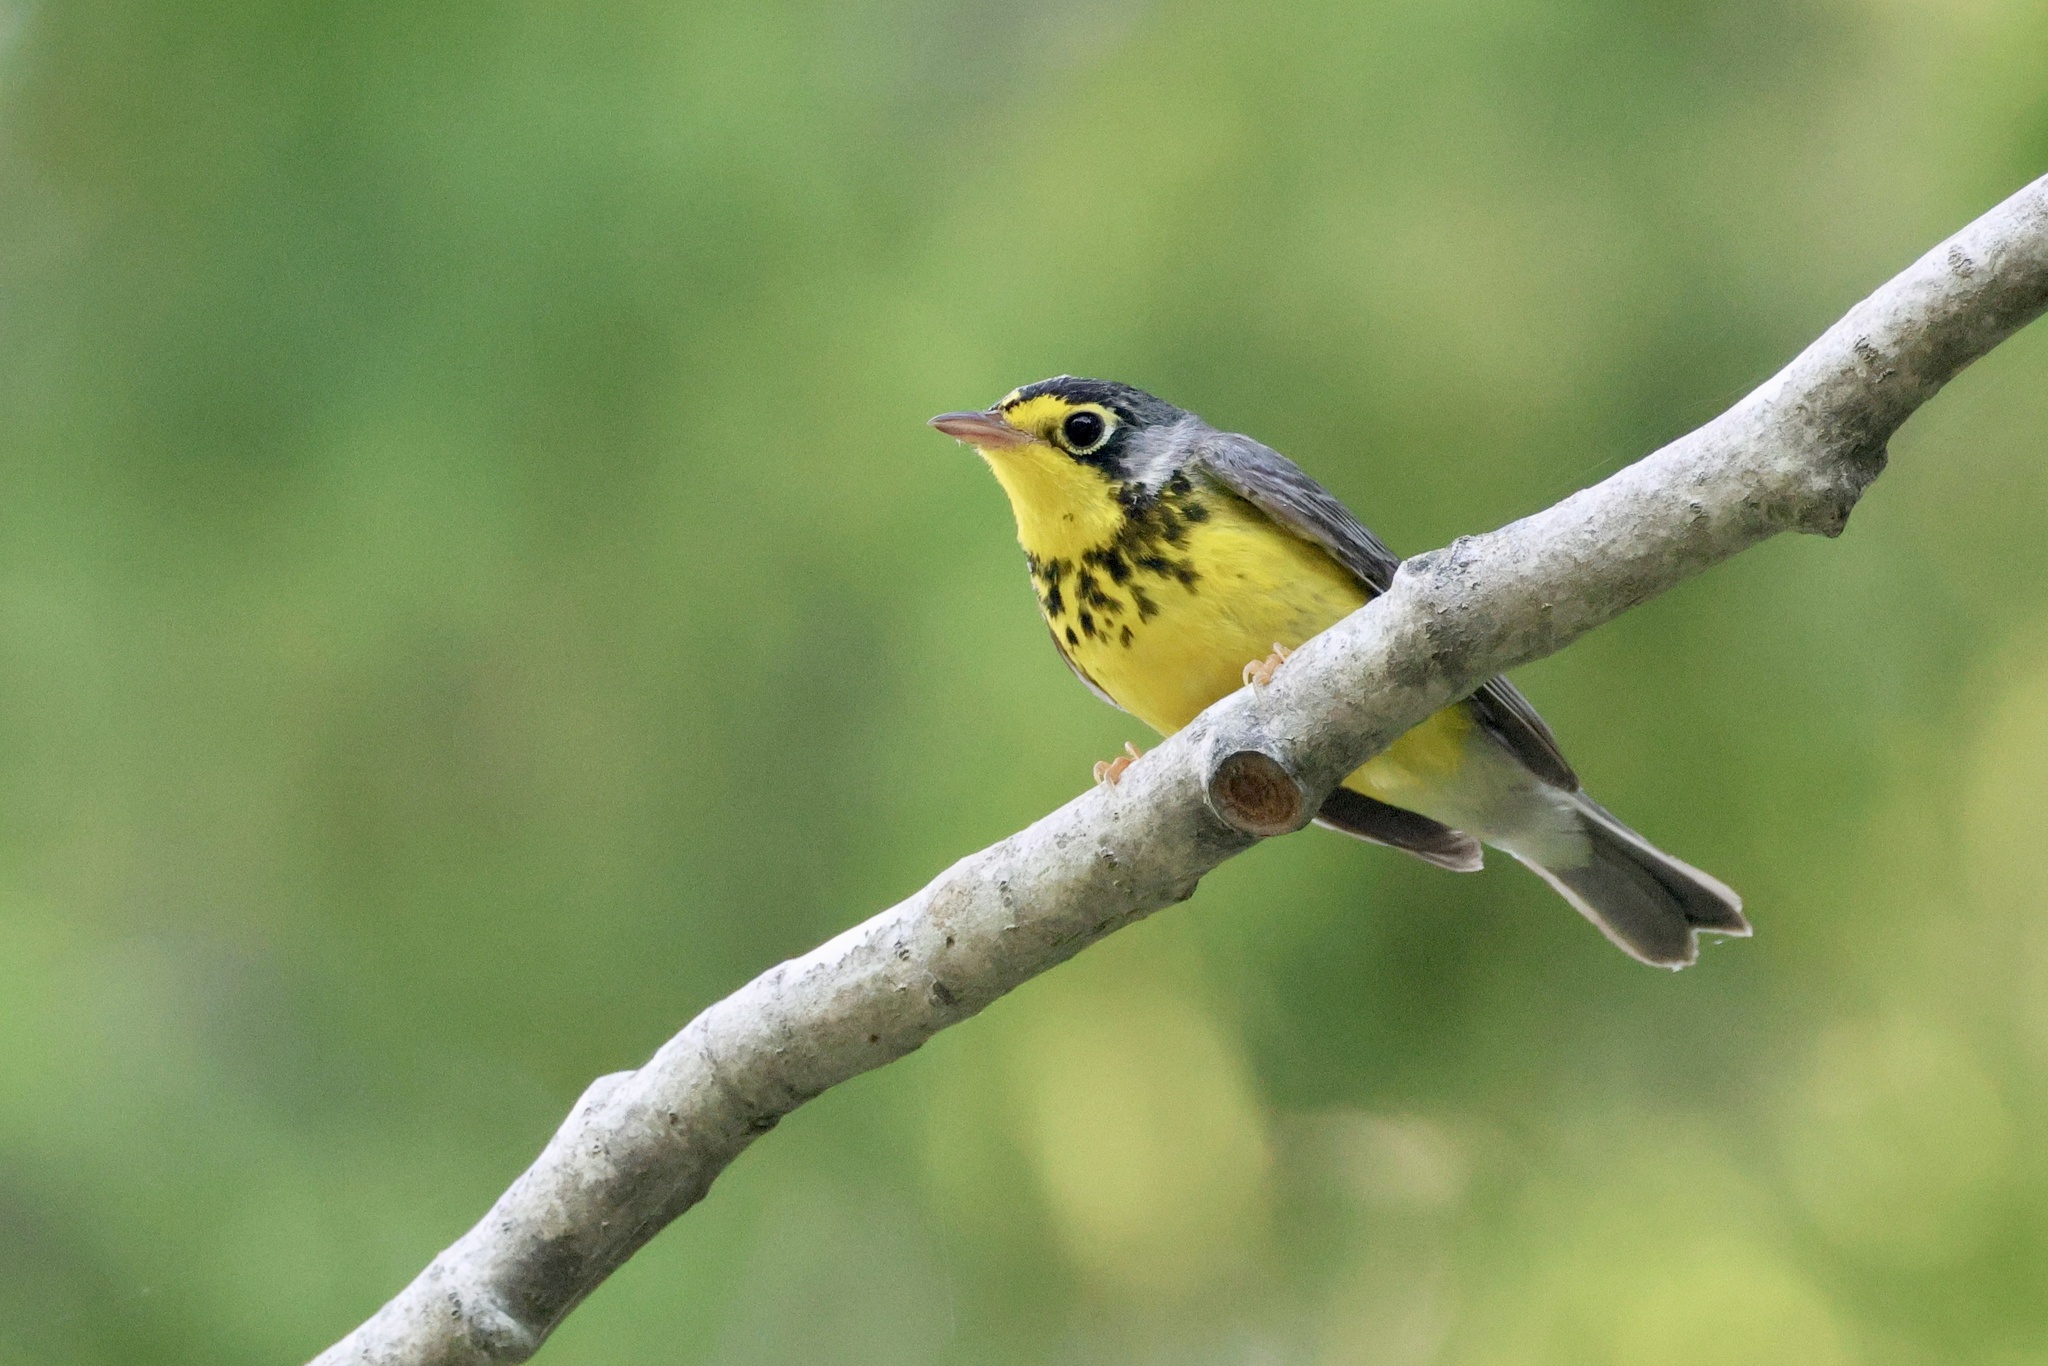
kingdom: Animalia
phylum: Chordata
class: Aves
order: Passeriformes
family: Parulidae
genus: Cardellina
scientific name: Cardellina canadensis
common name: Canada warbler
